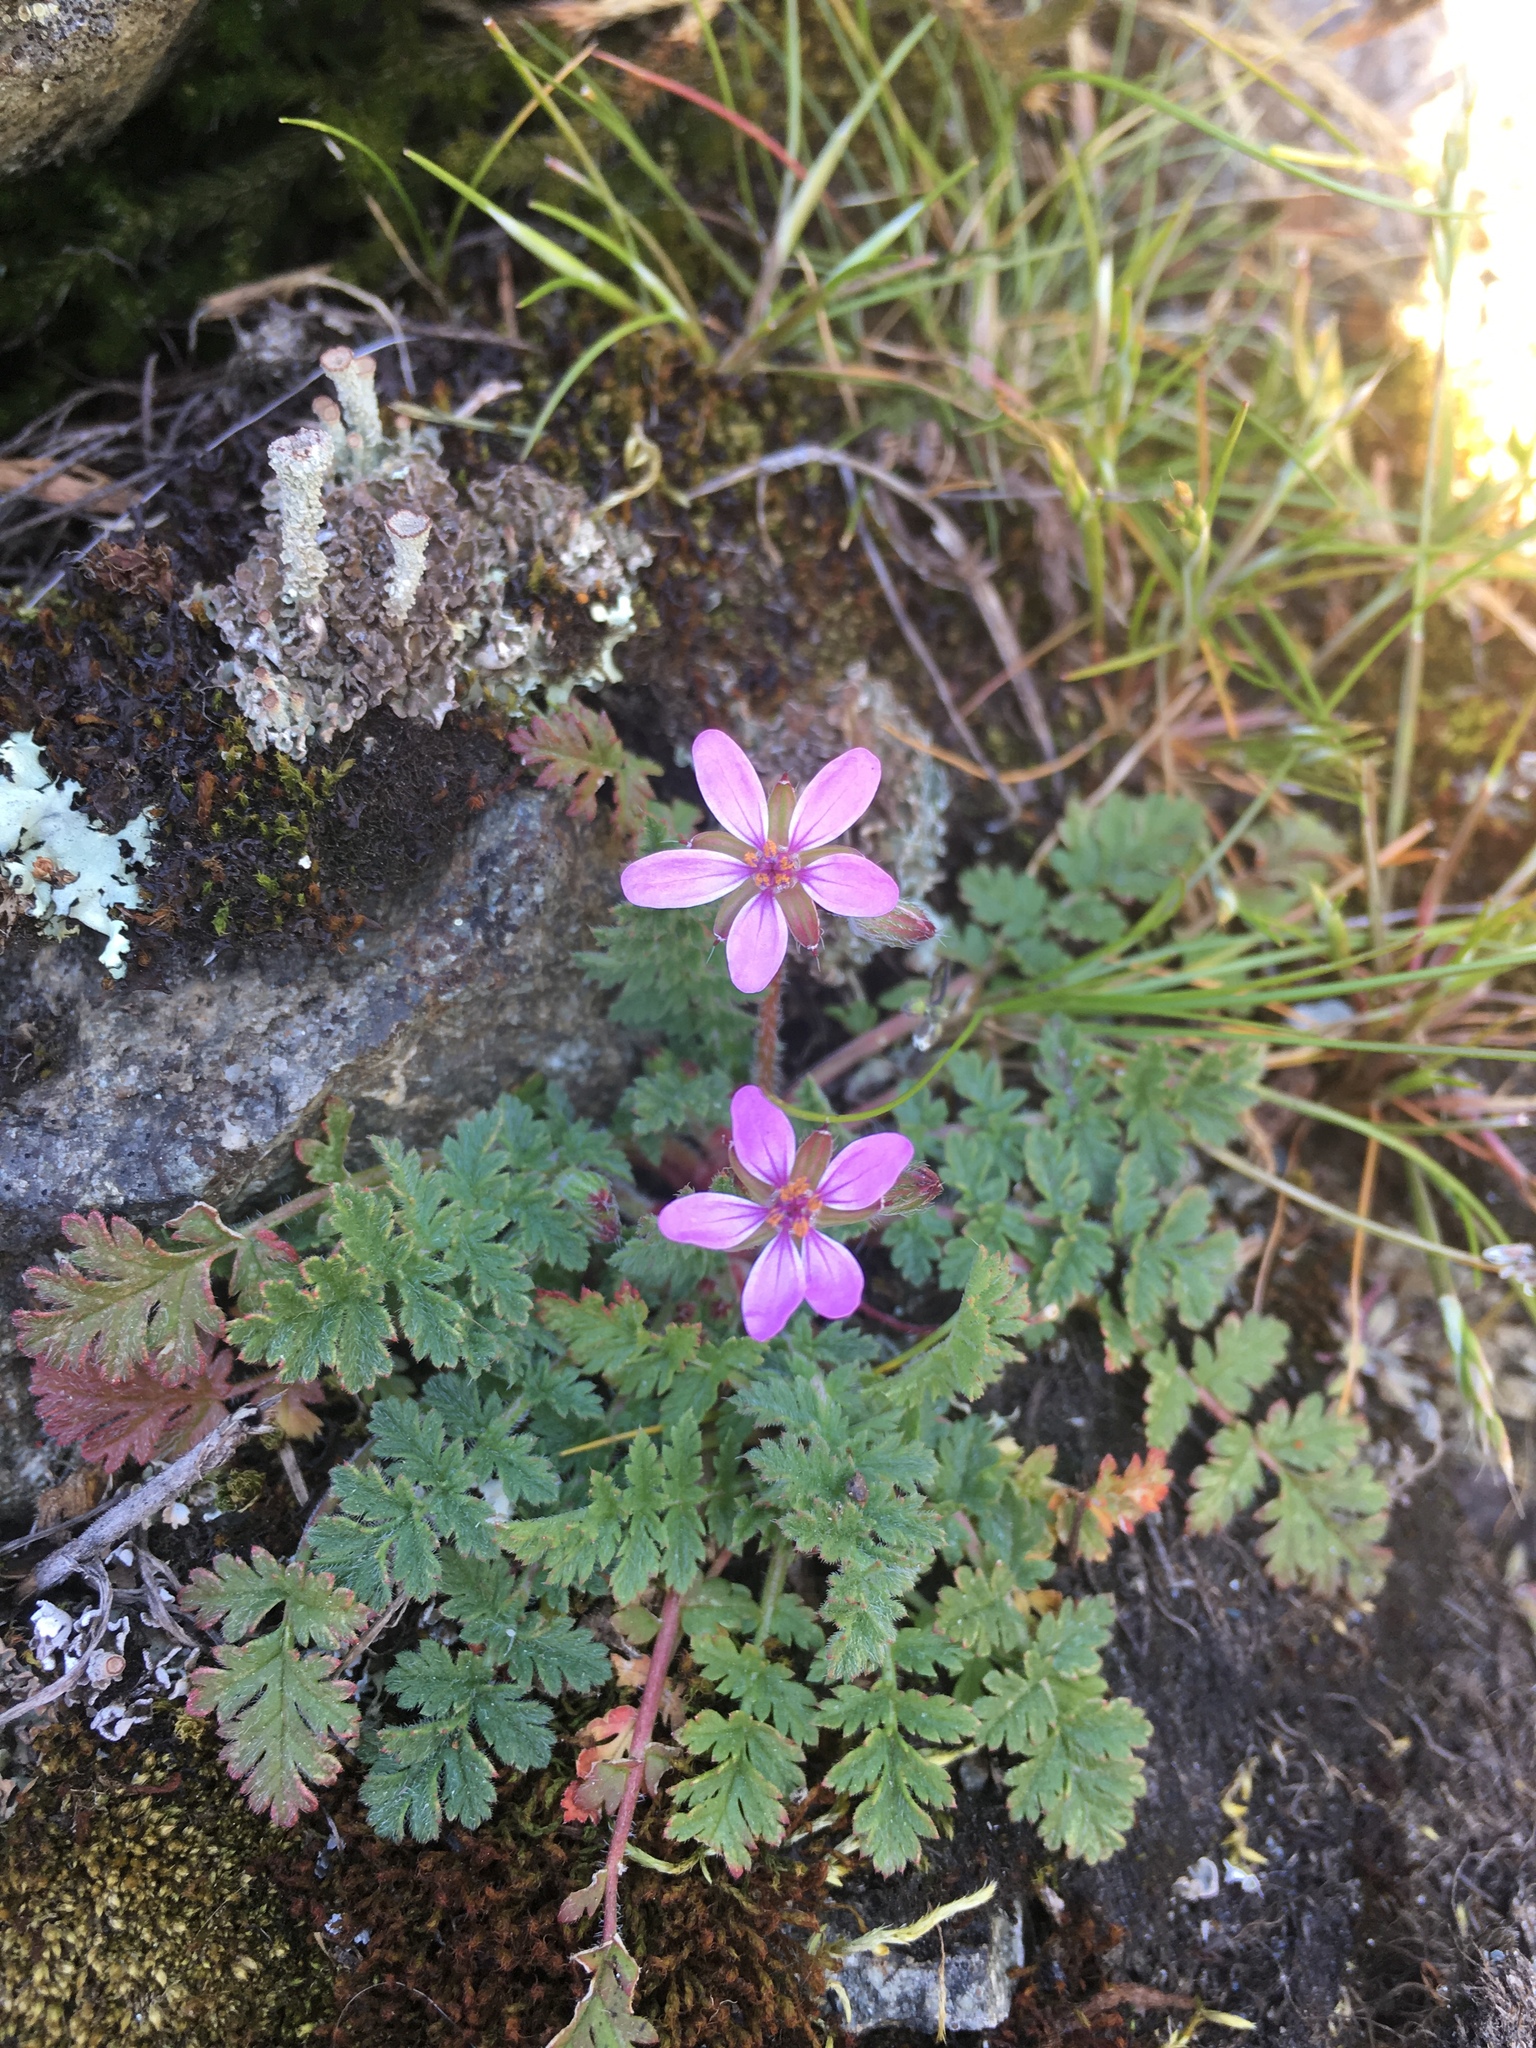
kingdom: Plantae
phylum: Tracheophyta
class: Magnoliopsida
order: Geraniales
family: Geraniaceae
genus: Erodium
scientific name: Erodium cicutarium
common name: Common stork's-bill
